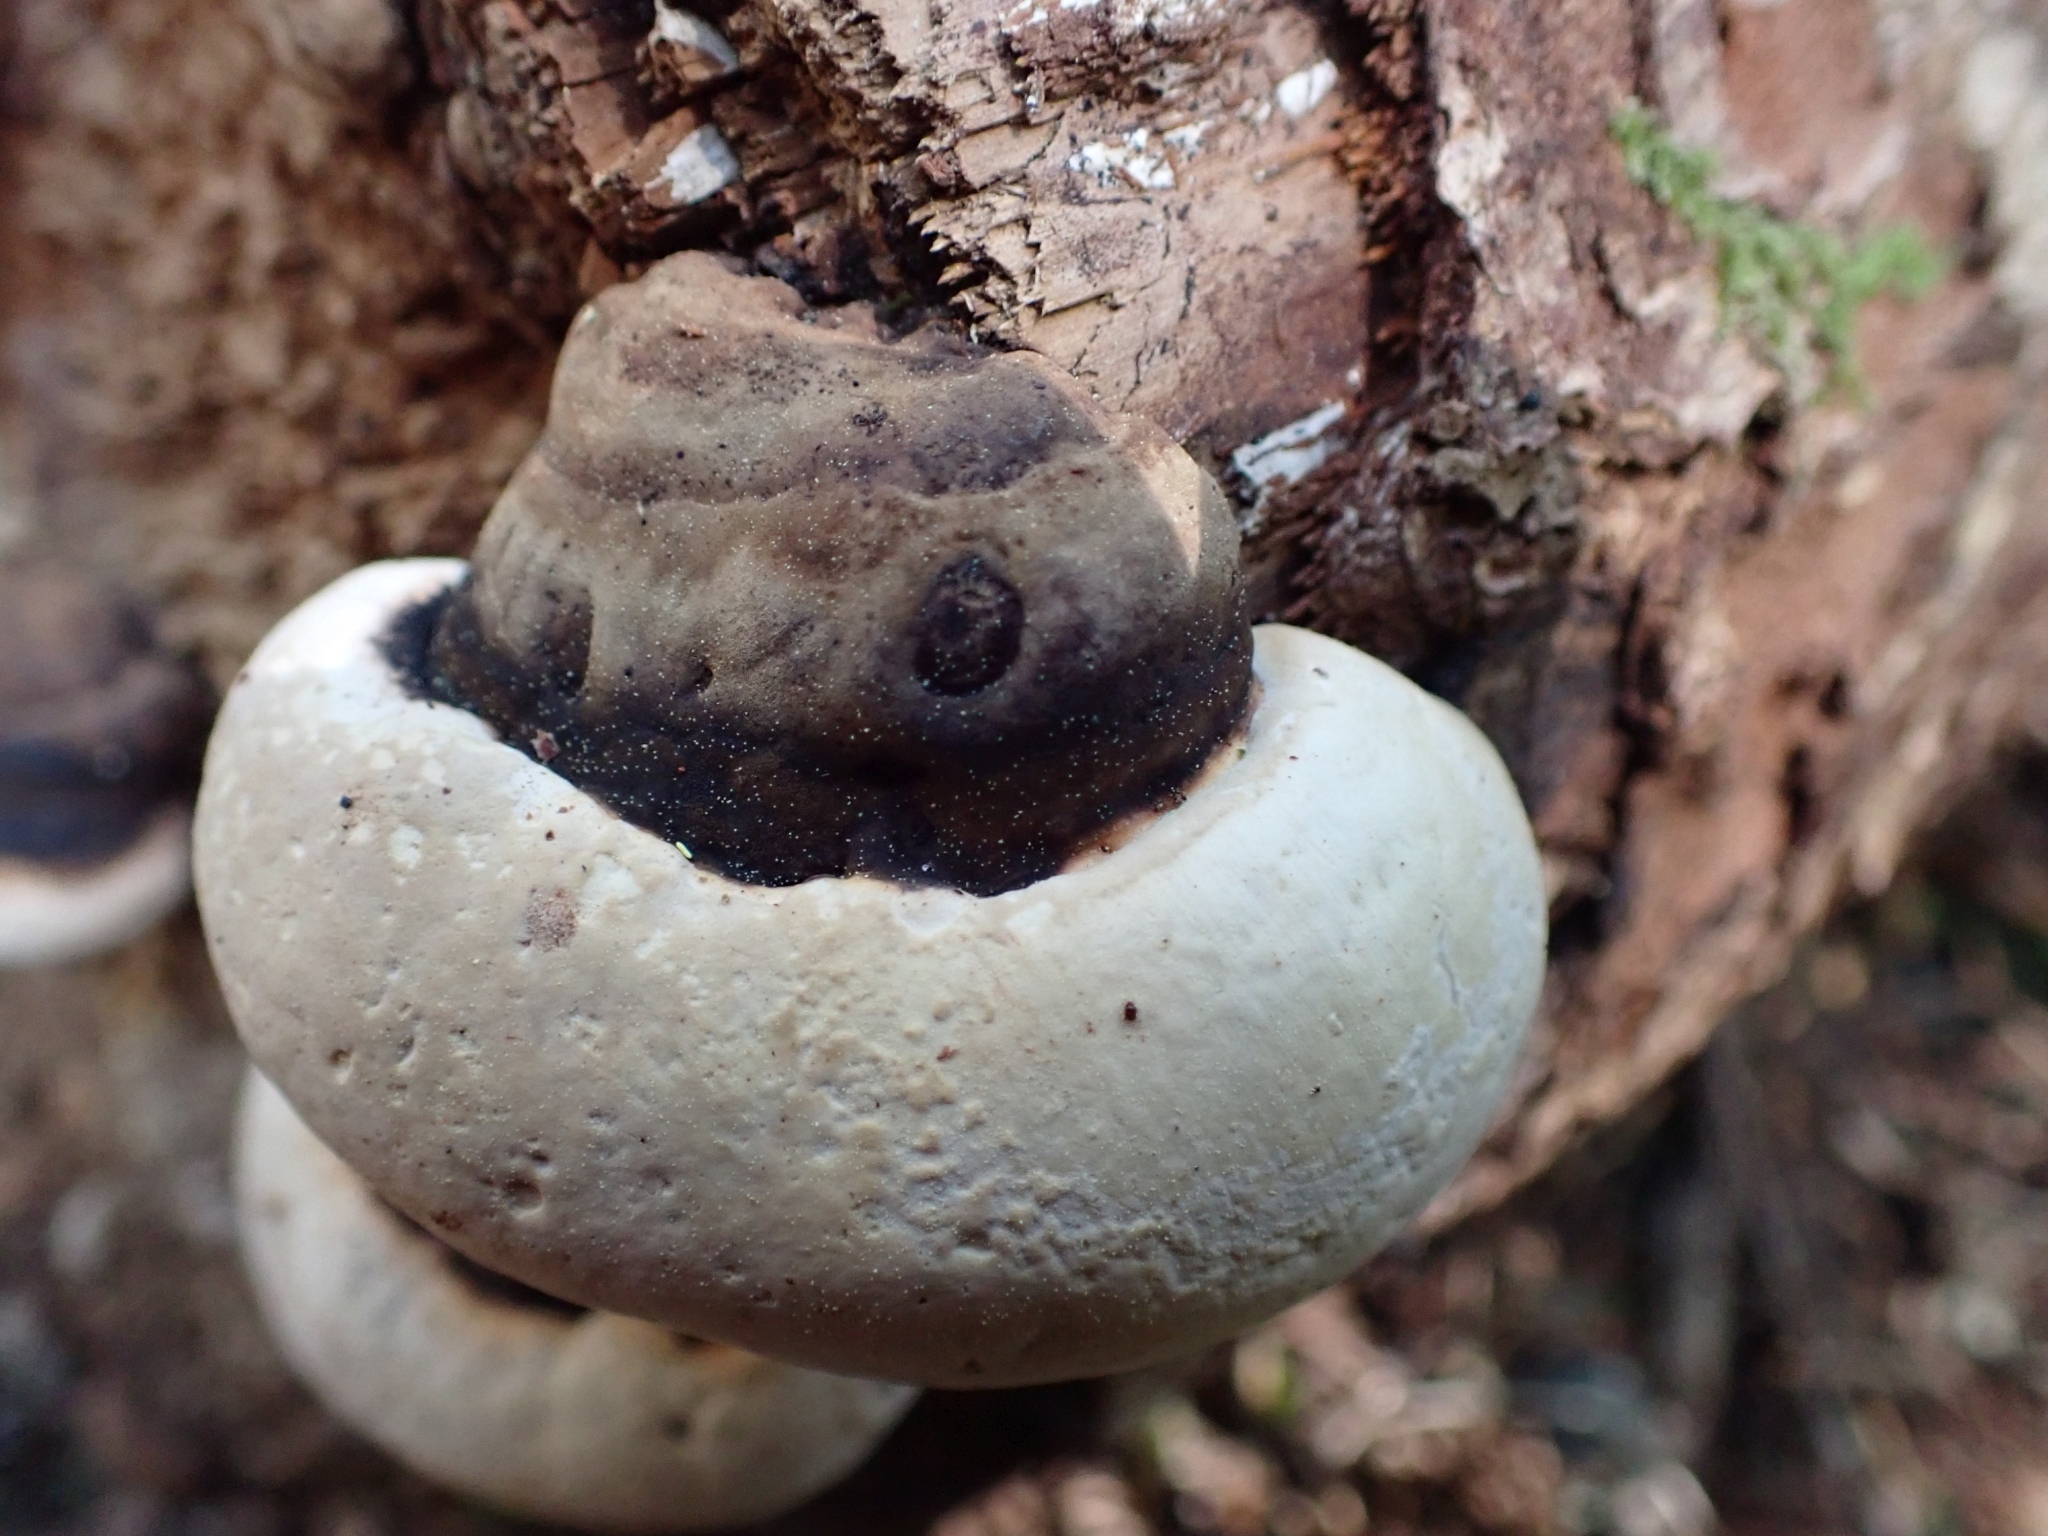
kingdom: Fungi
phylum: Basidiomycota
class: Agaricomycetes
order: Polyporales
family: Fomitopsidaceae
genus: Fomitopsis
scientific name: Fomitopsis ochracea
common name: American brown fomitopsis
